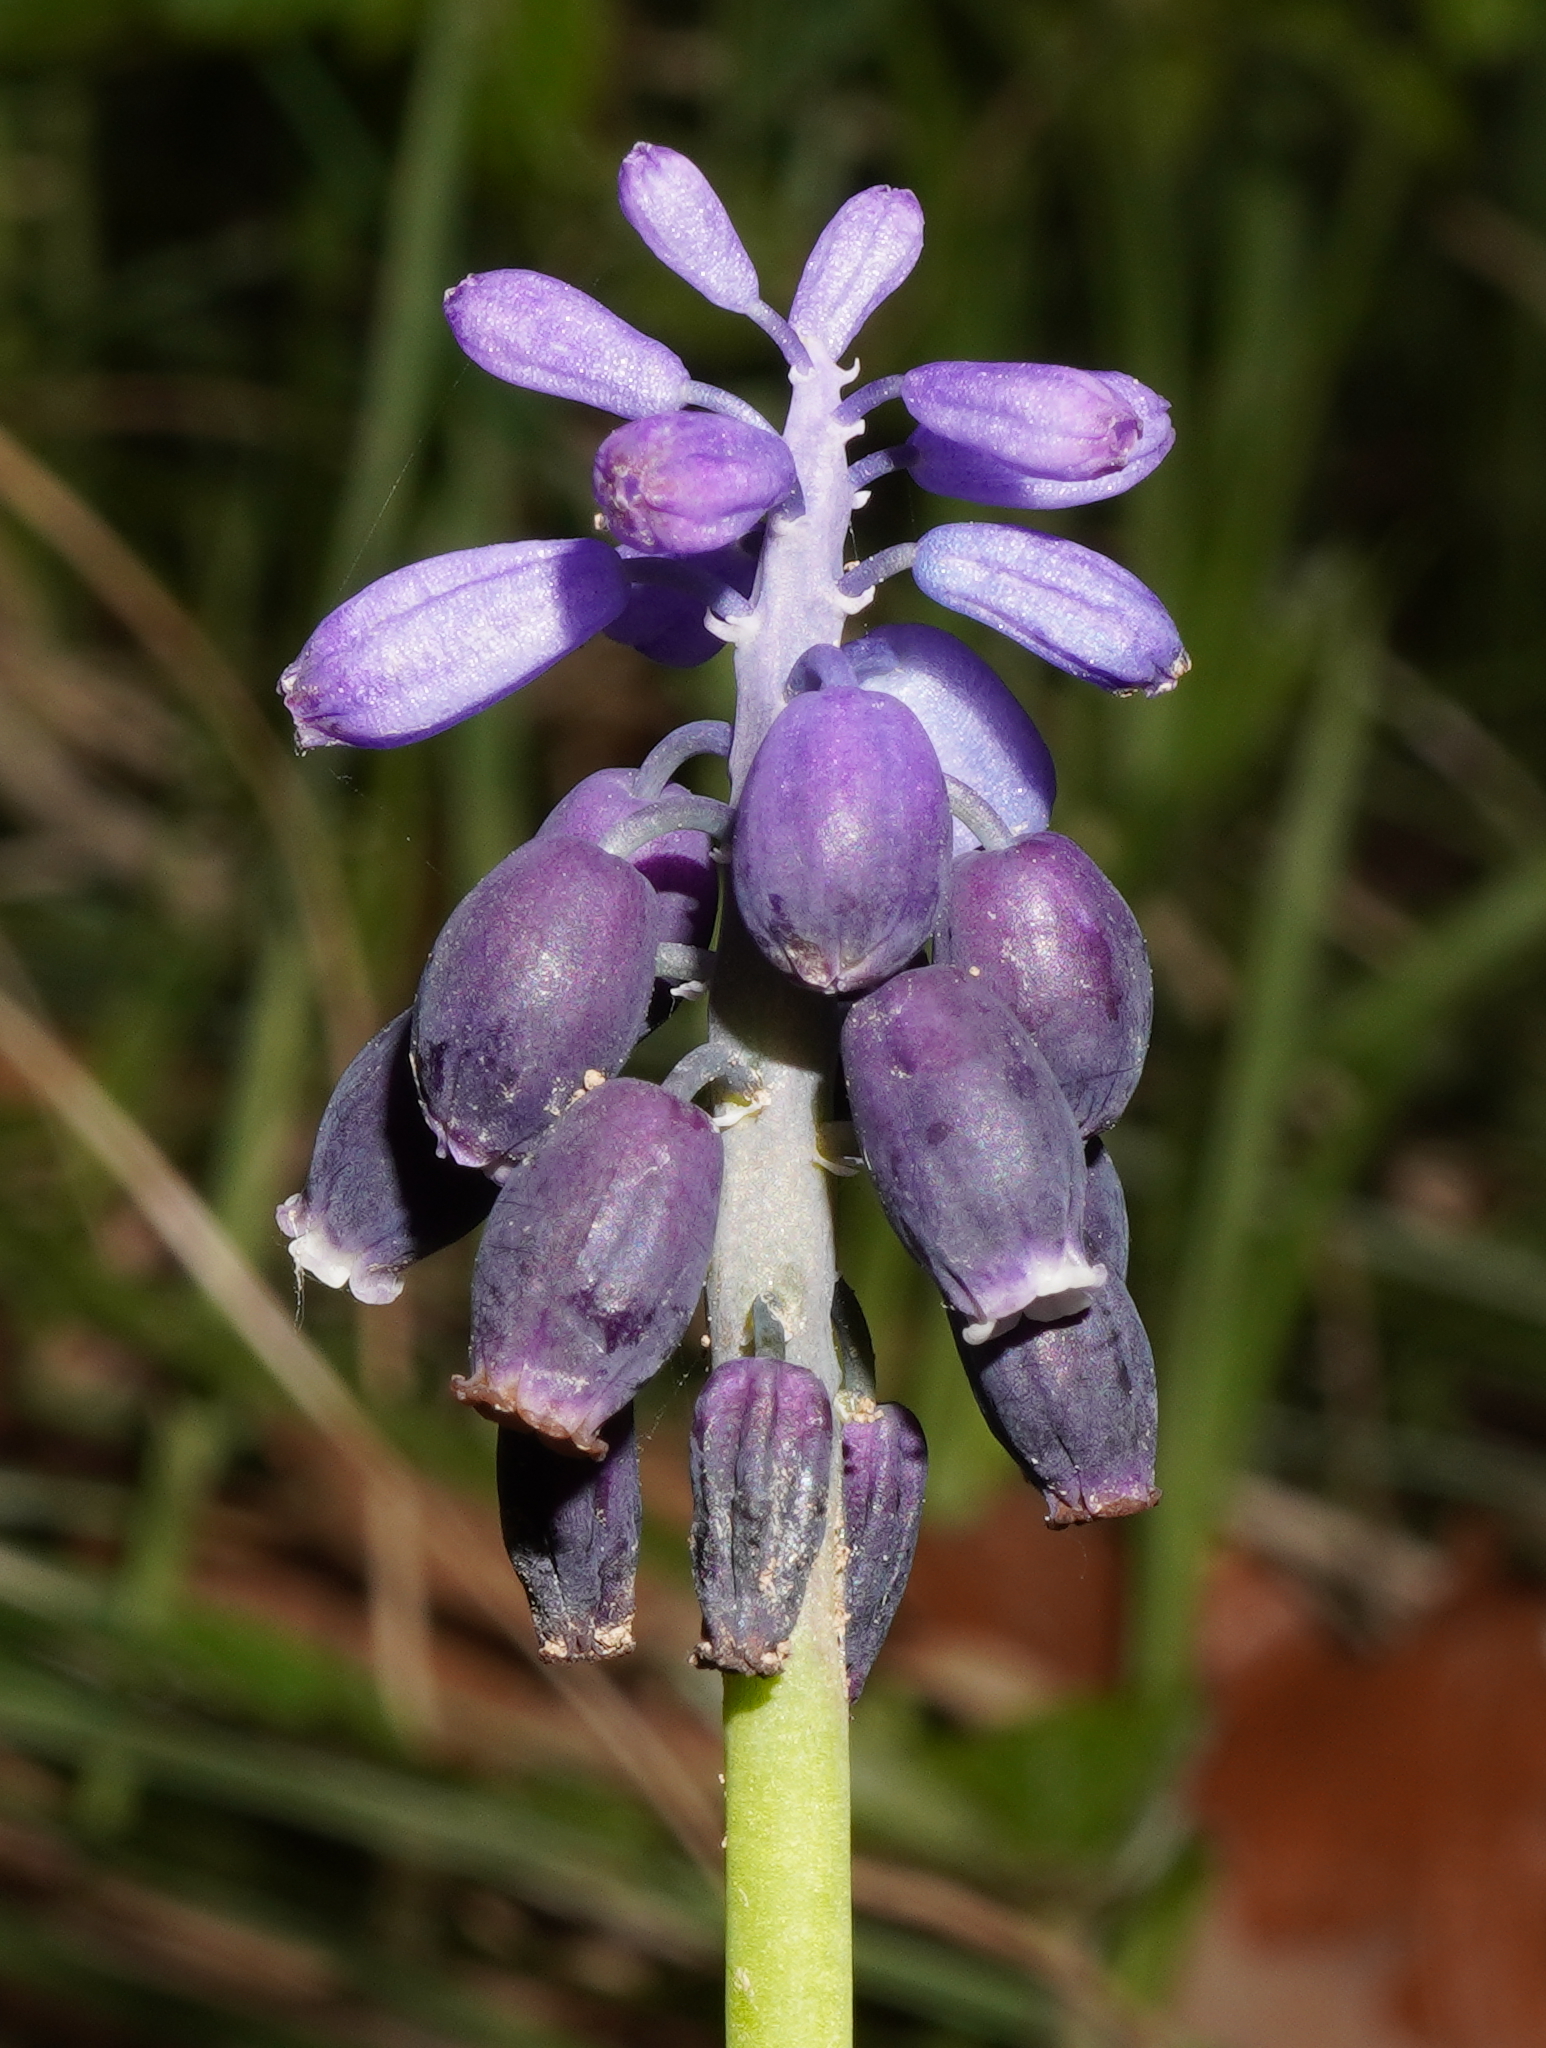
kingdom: Plantae
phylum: Tracheophyta
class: Liliopsida
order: Asparagales
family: Asparagaceae
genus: Muscari
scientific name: Muscari neglectum
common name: Grape-hyacinth
